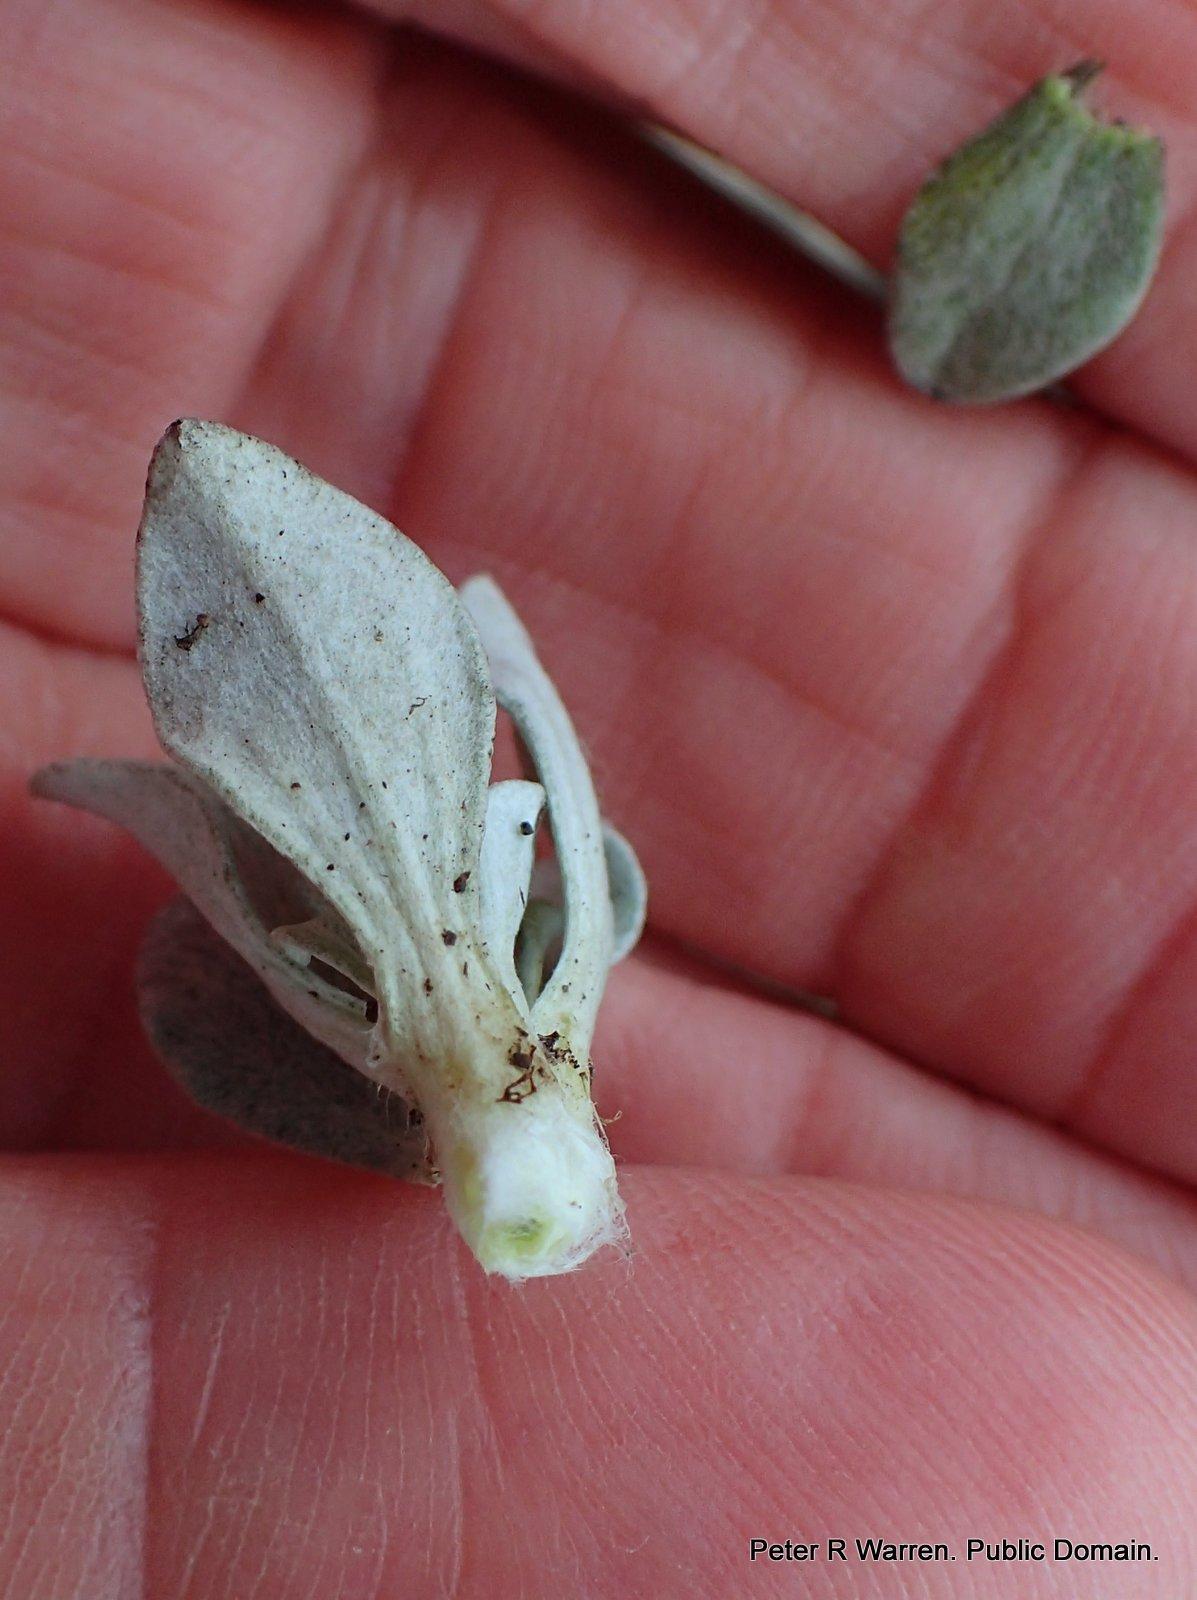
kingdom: Plantae
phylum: Tracheophyta
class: Magnoliopsida
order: Asterales
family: Asteraceae
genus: Gnaphalium
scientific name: Gnaphalium limicola
